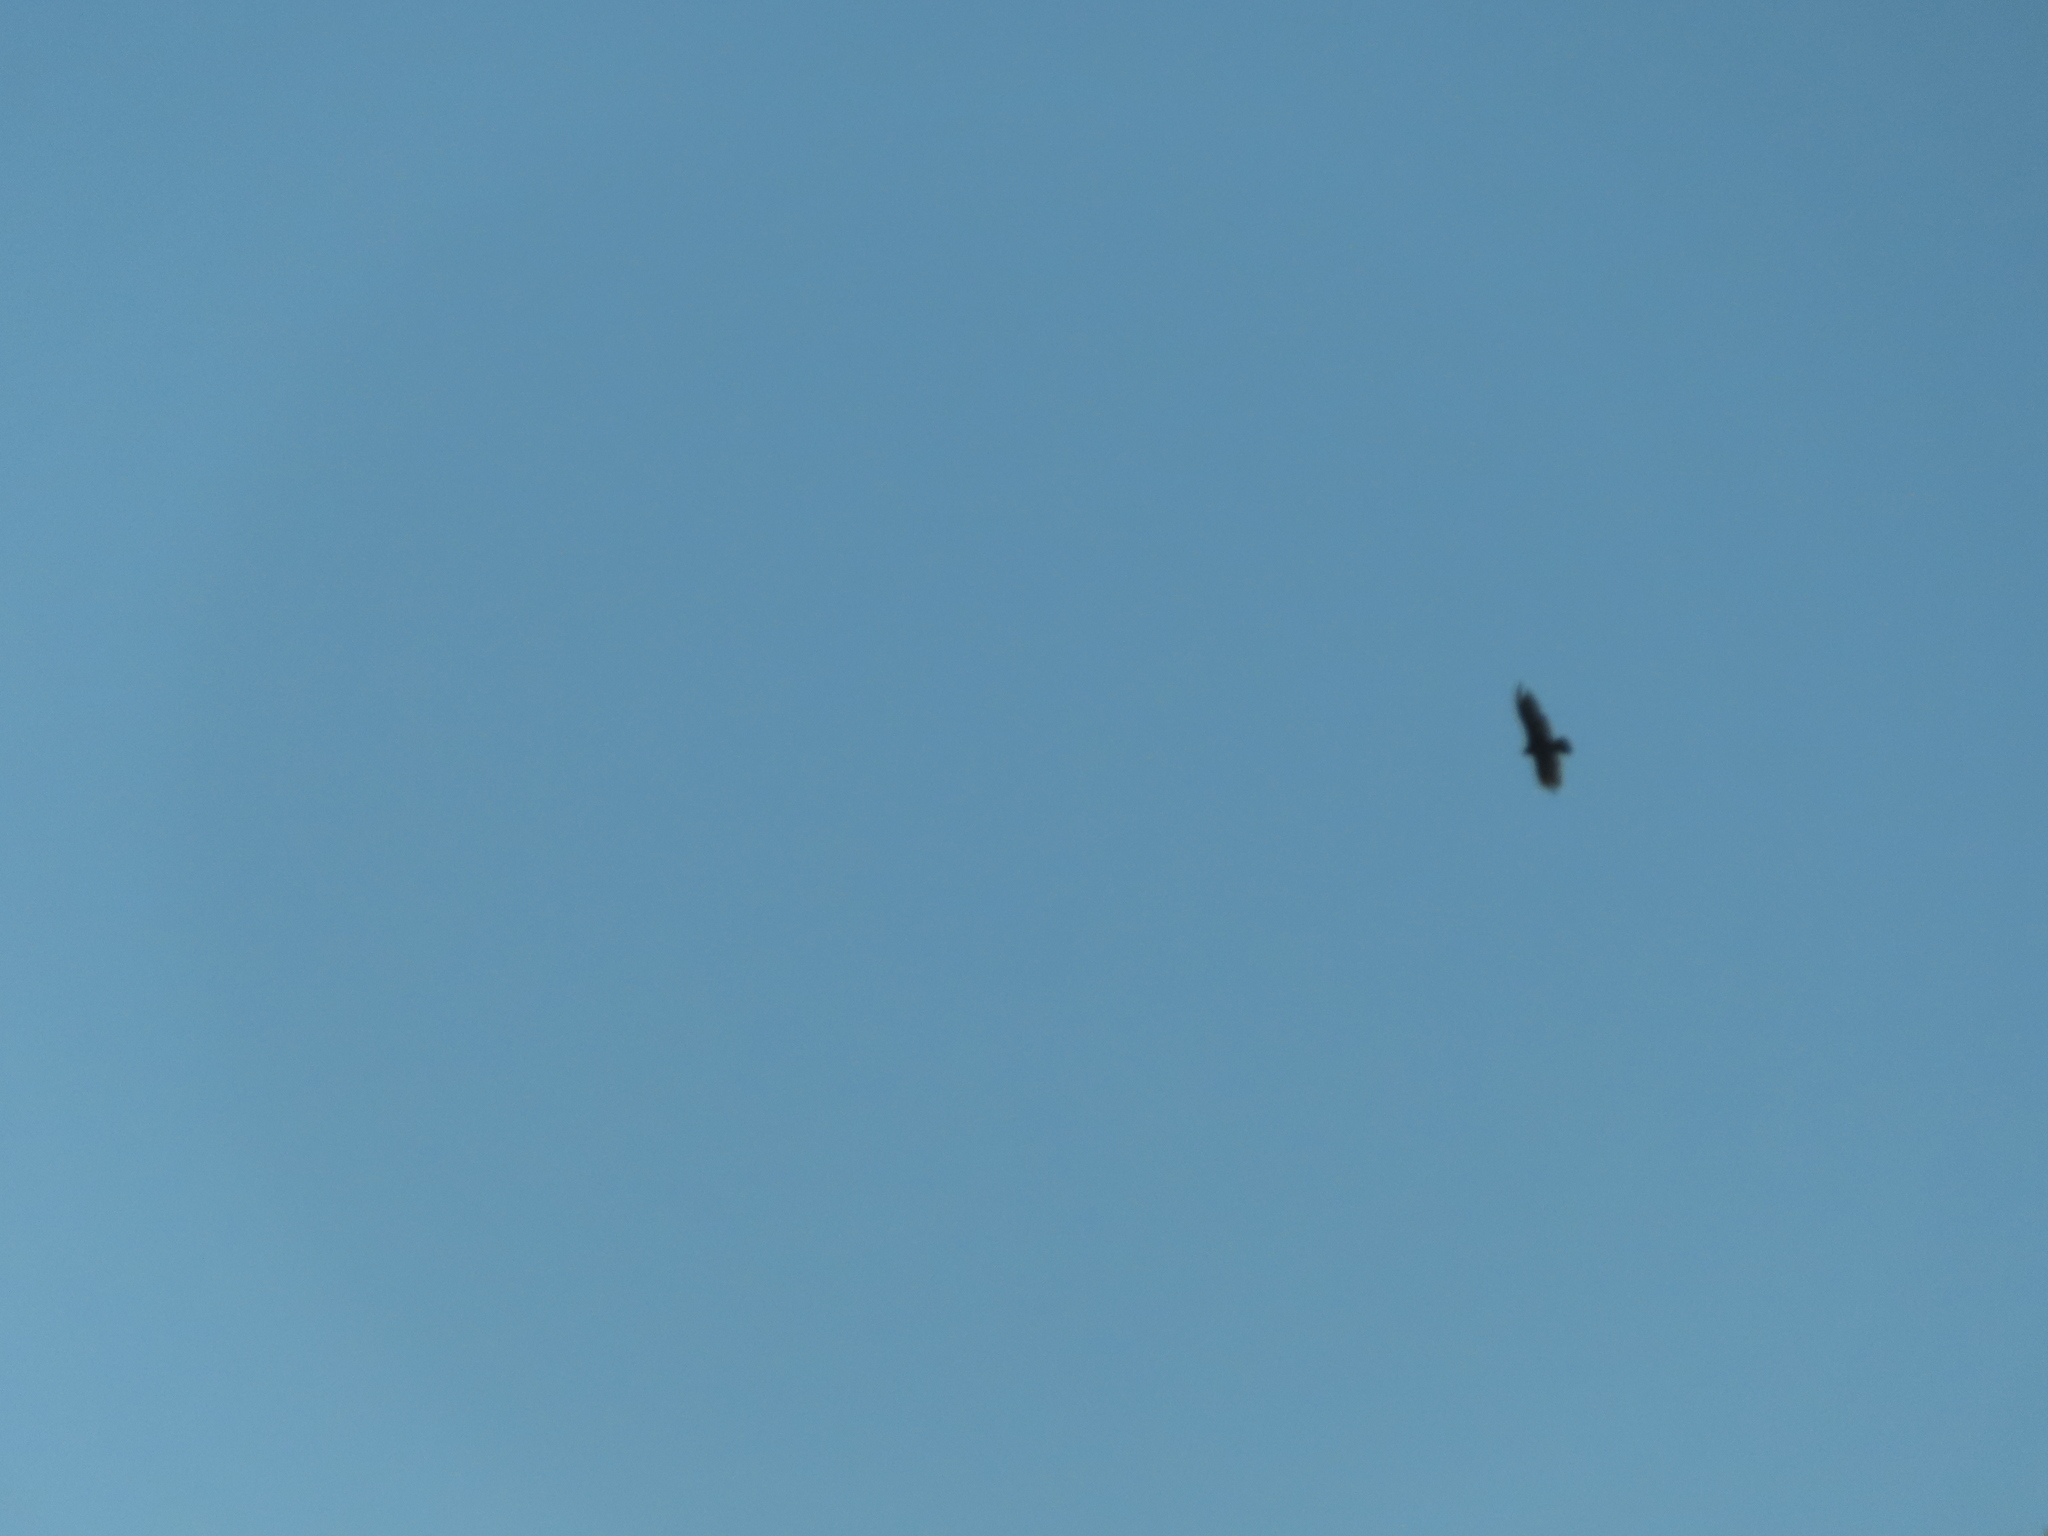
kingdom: Animalia
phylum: Chordata
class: Aves
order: Accipitriformes
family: Cathartidae
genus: Cathartes
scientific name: Cathartes aura
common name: Turkey vulture
